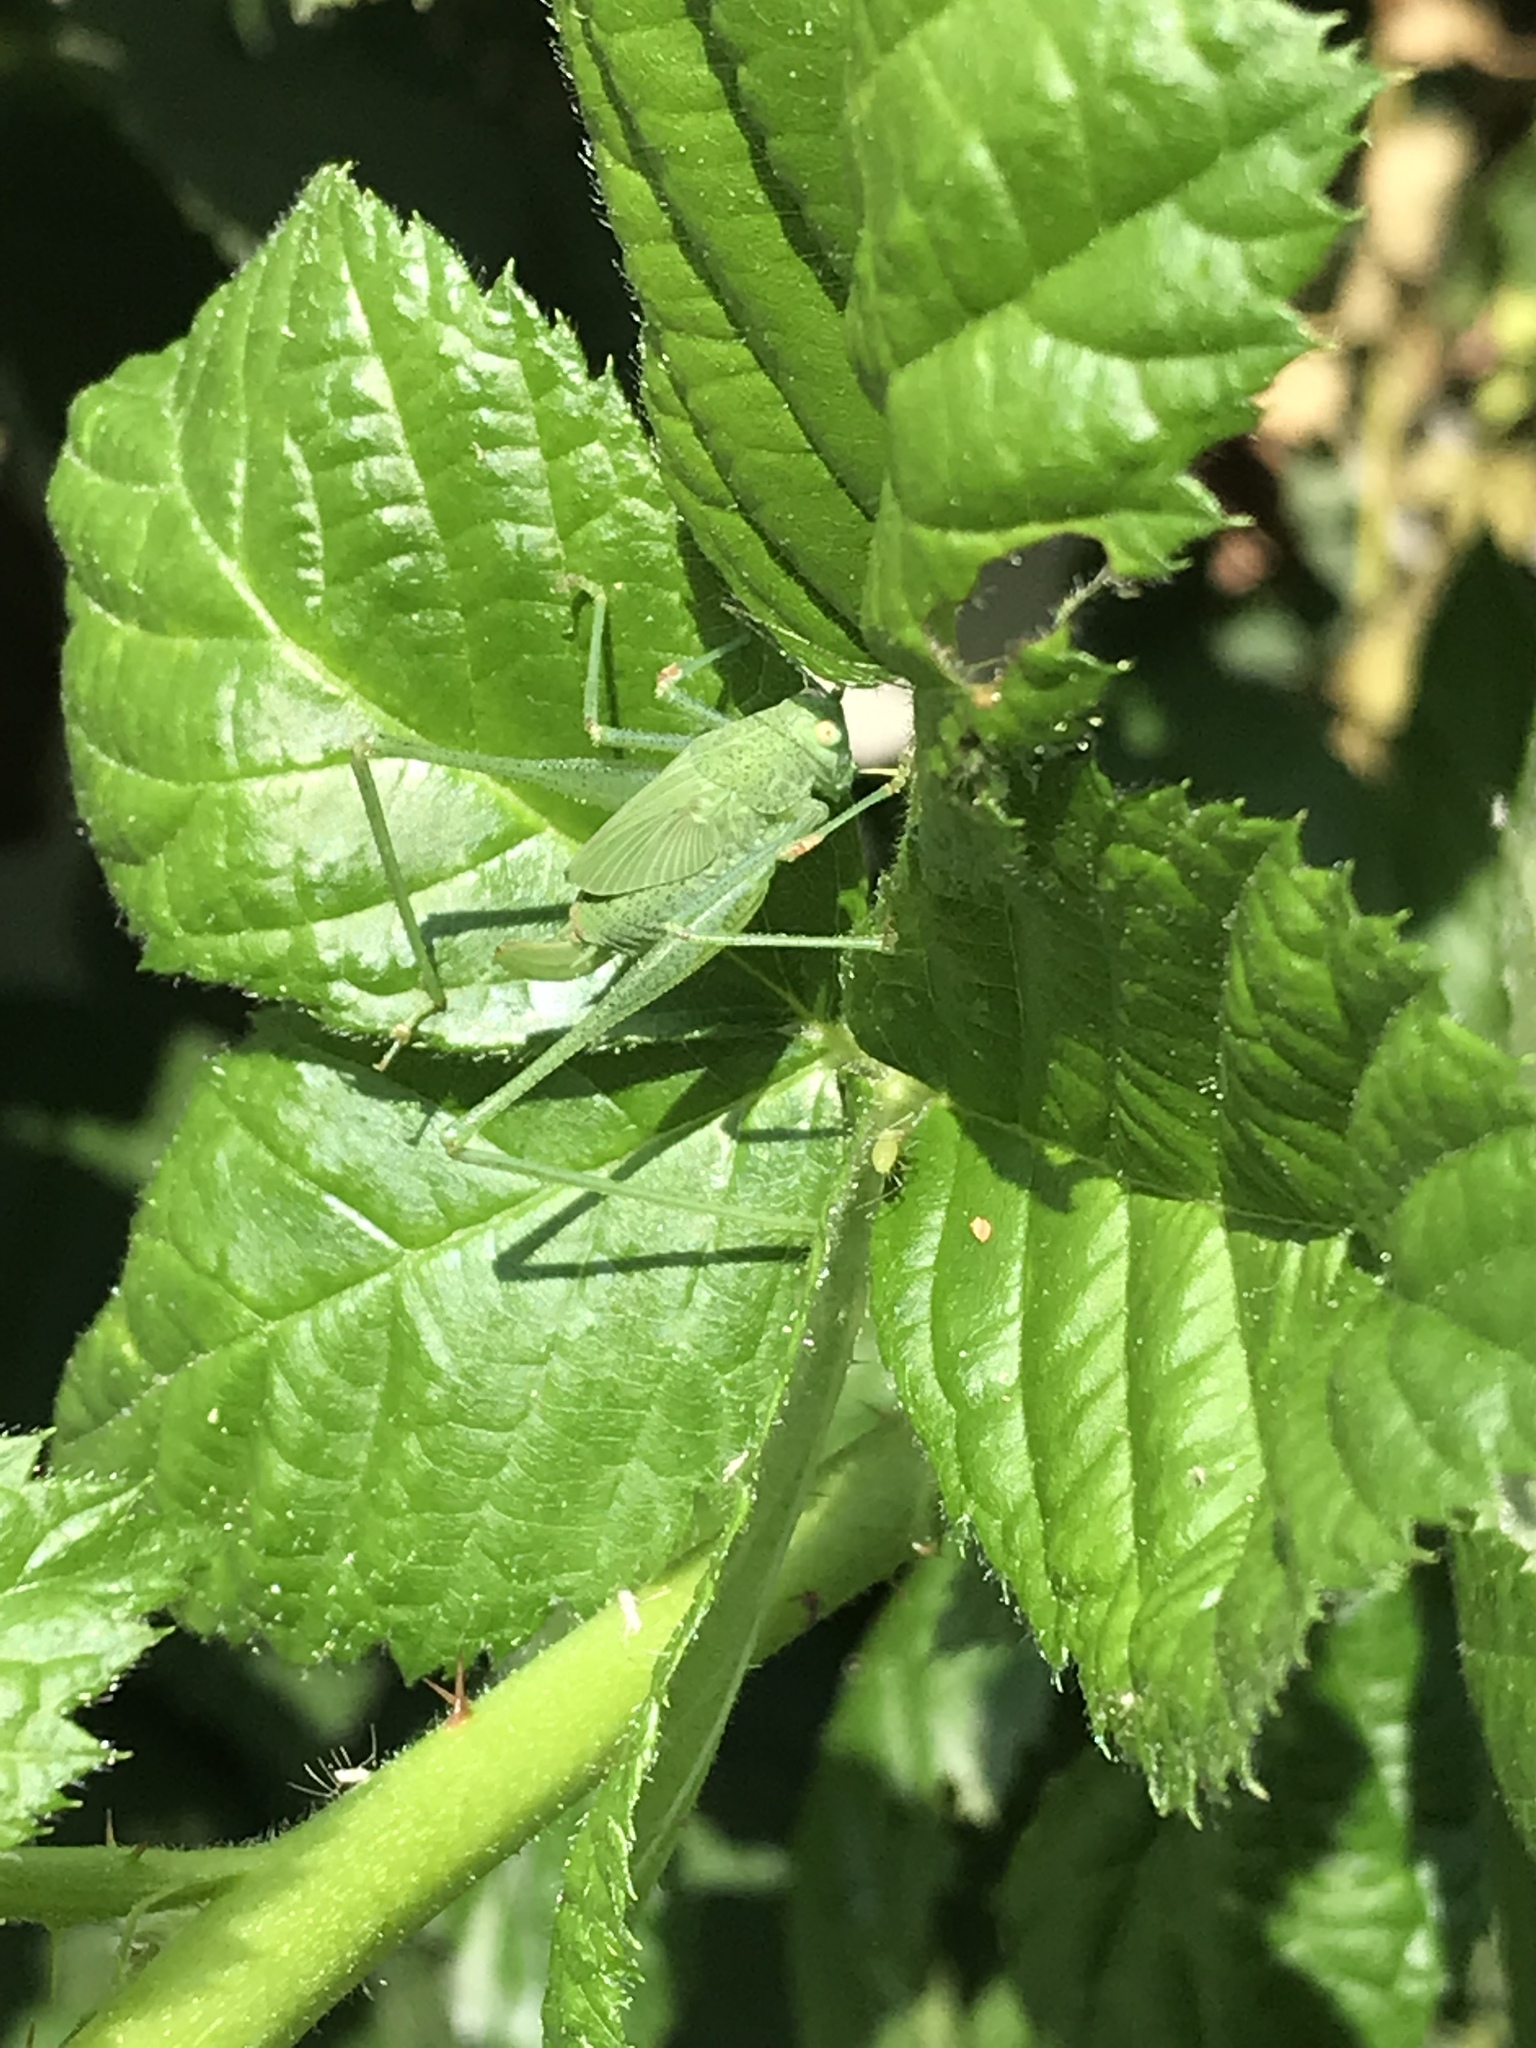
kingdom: Animalia
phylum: Arthropoda
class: Insecta
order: Orthoptera
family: Tettigoniidae
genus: Phaneroptera
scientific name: Phaneroptera nana
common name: Southern sickle bush-cricket
